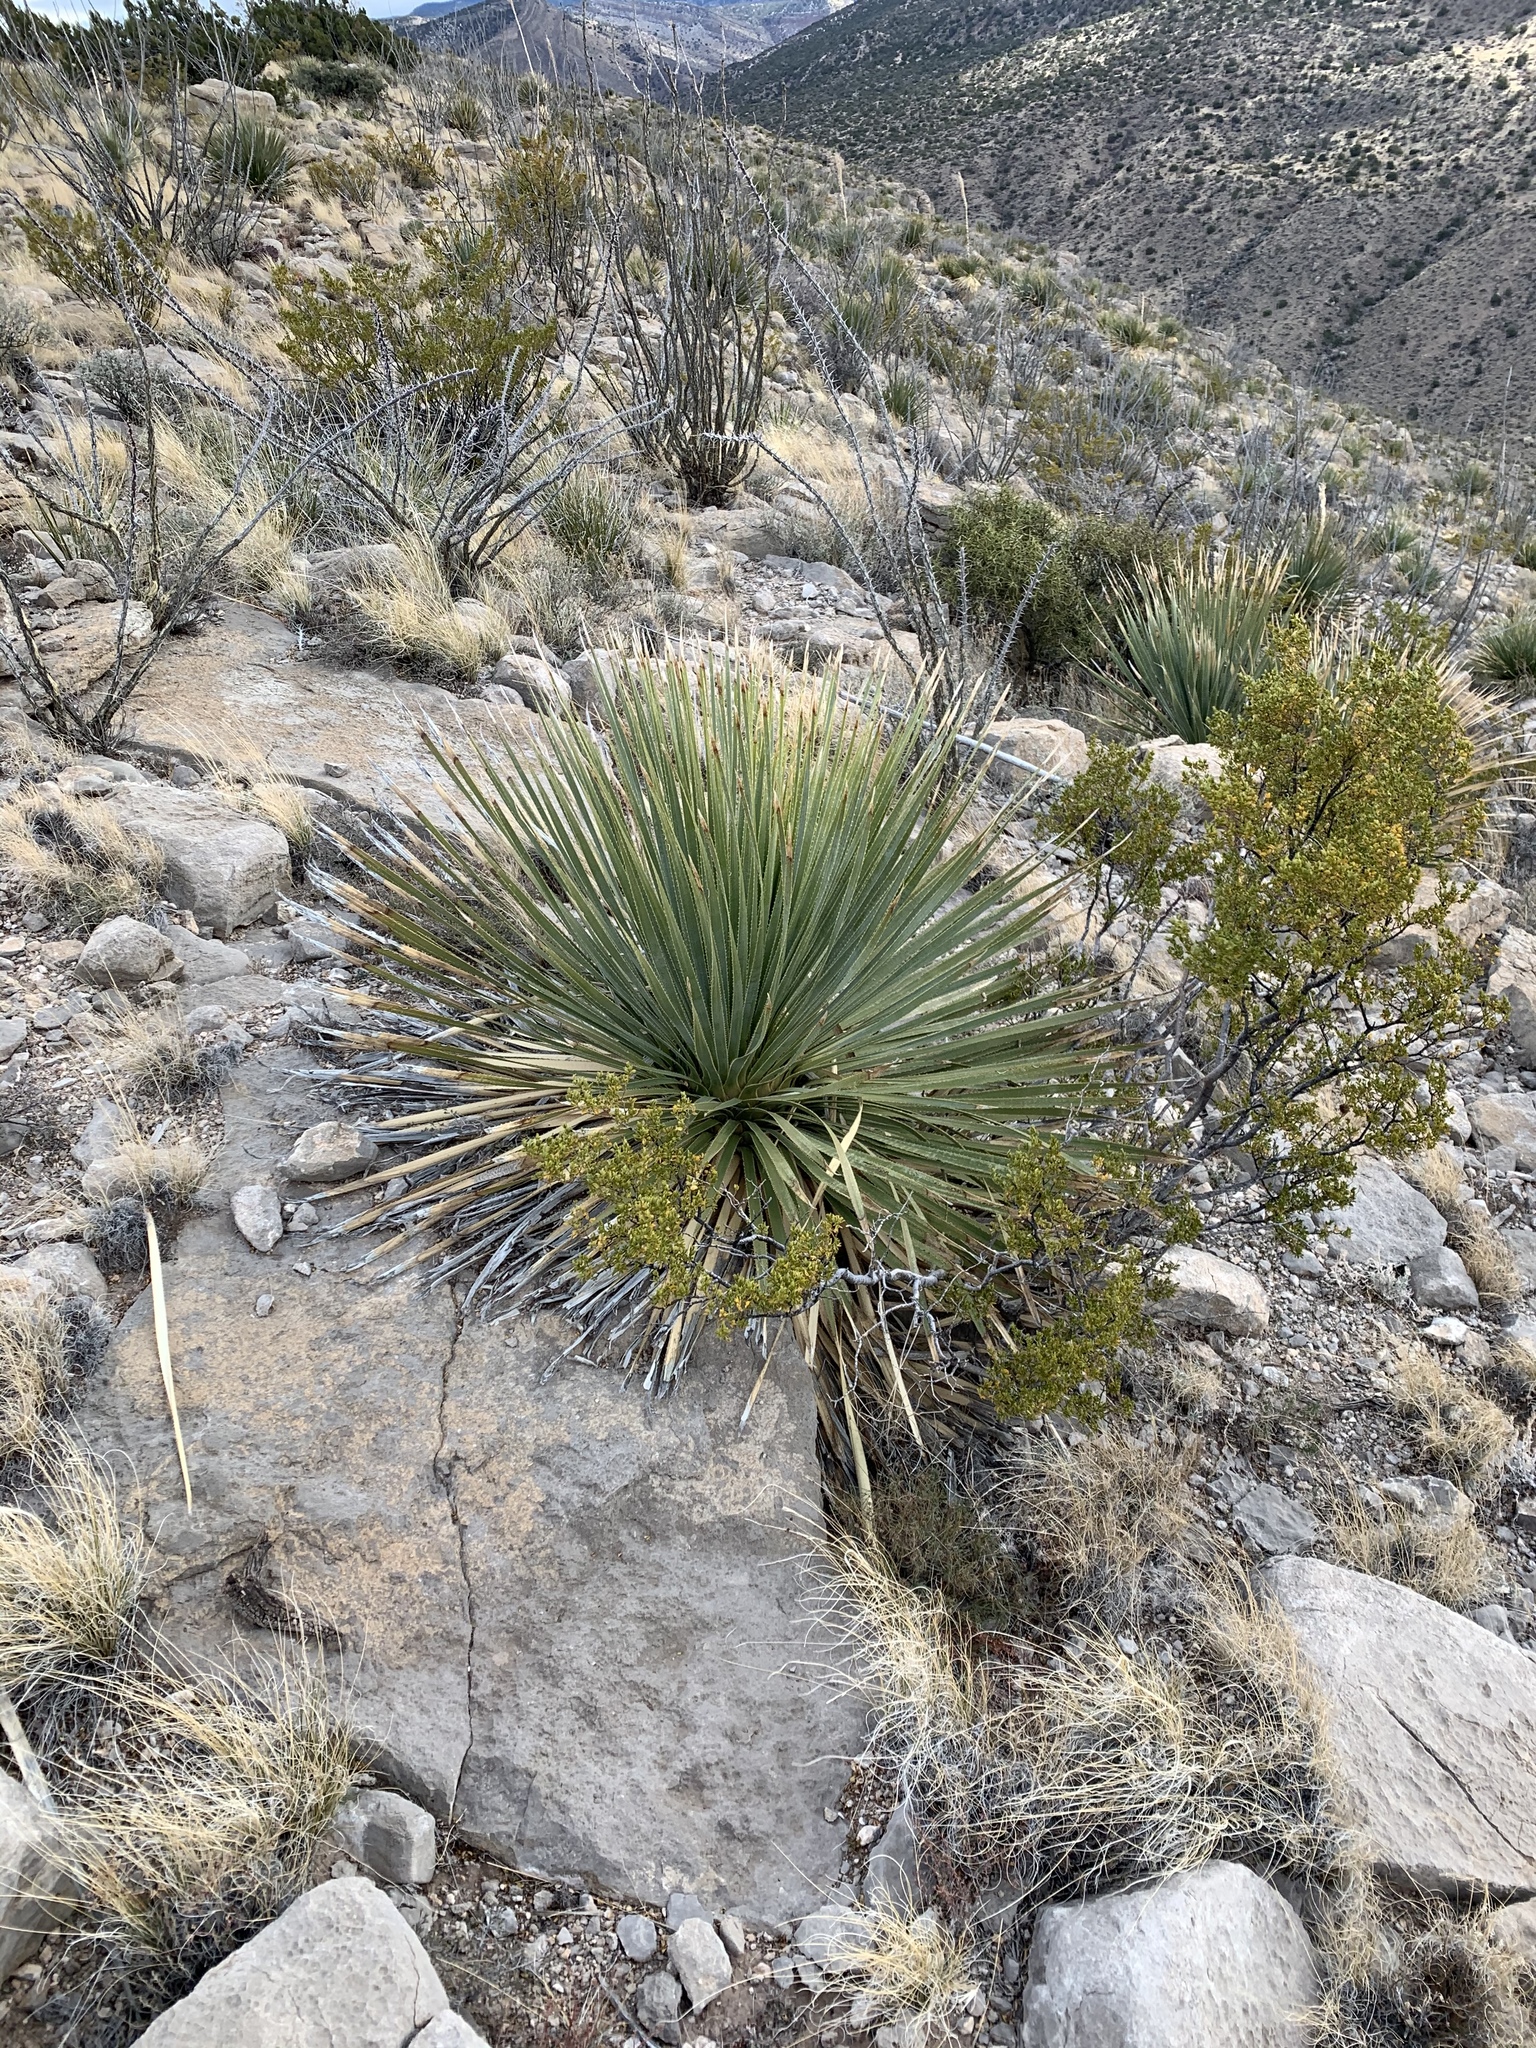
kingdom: Plantae
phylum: Tracheophyta
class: Liliopsida
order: Asparagales
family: Asparagaceae
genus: Dasylirion
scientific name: Dasylirion wheeleri
